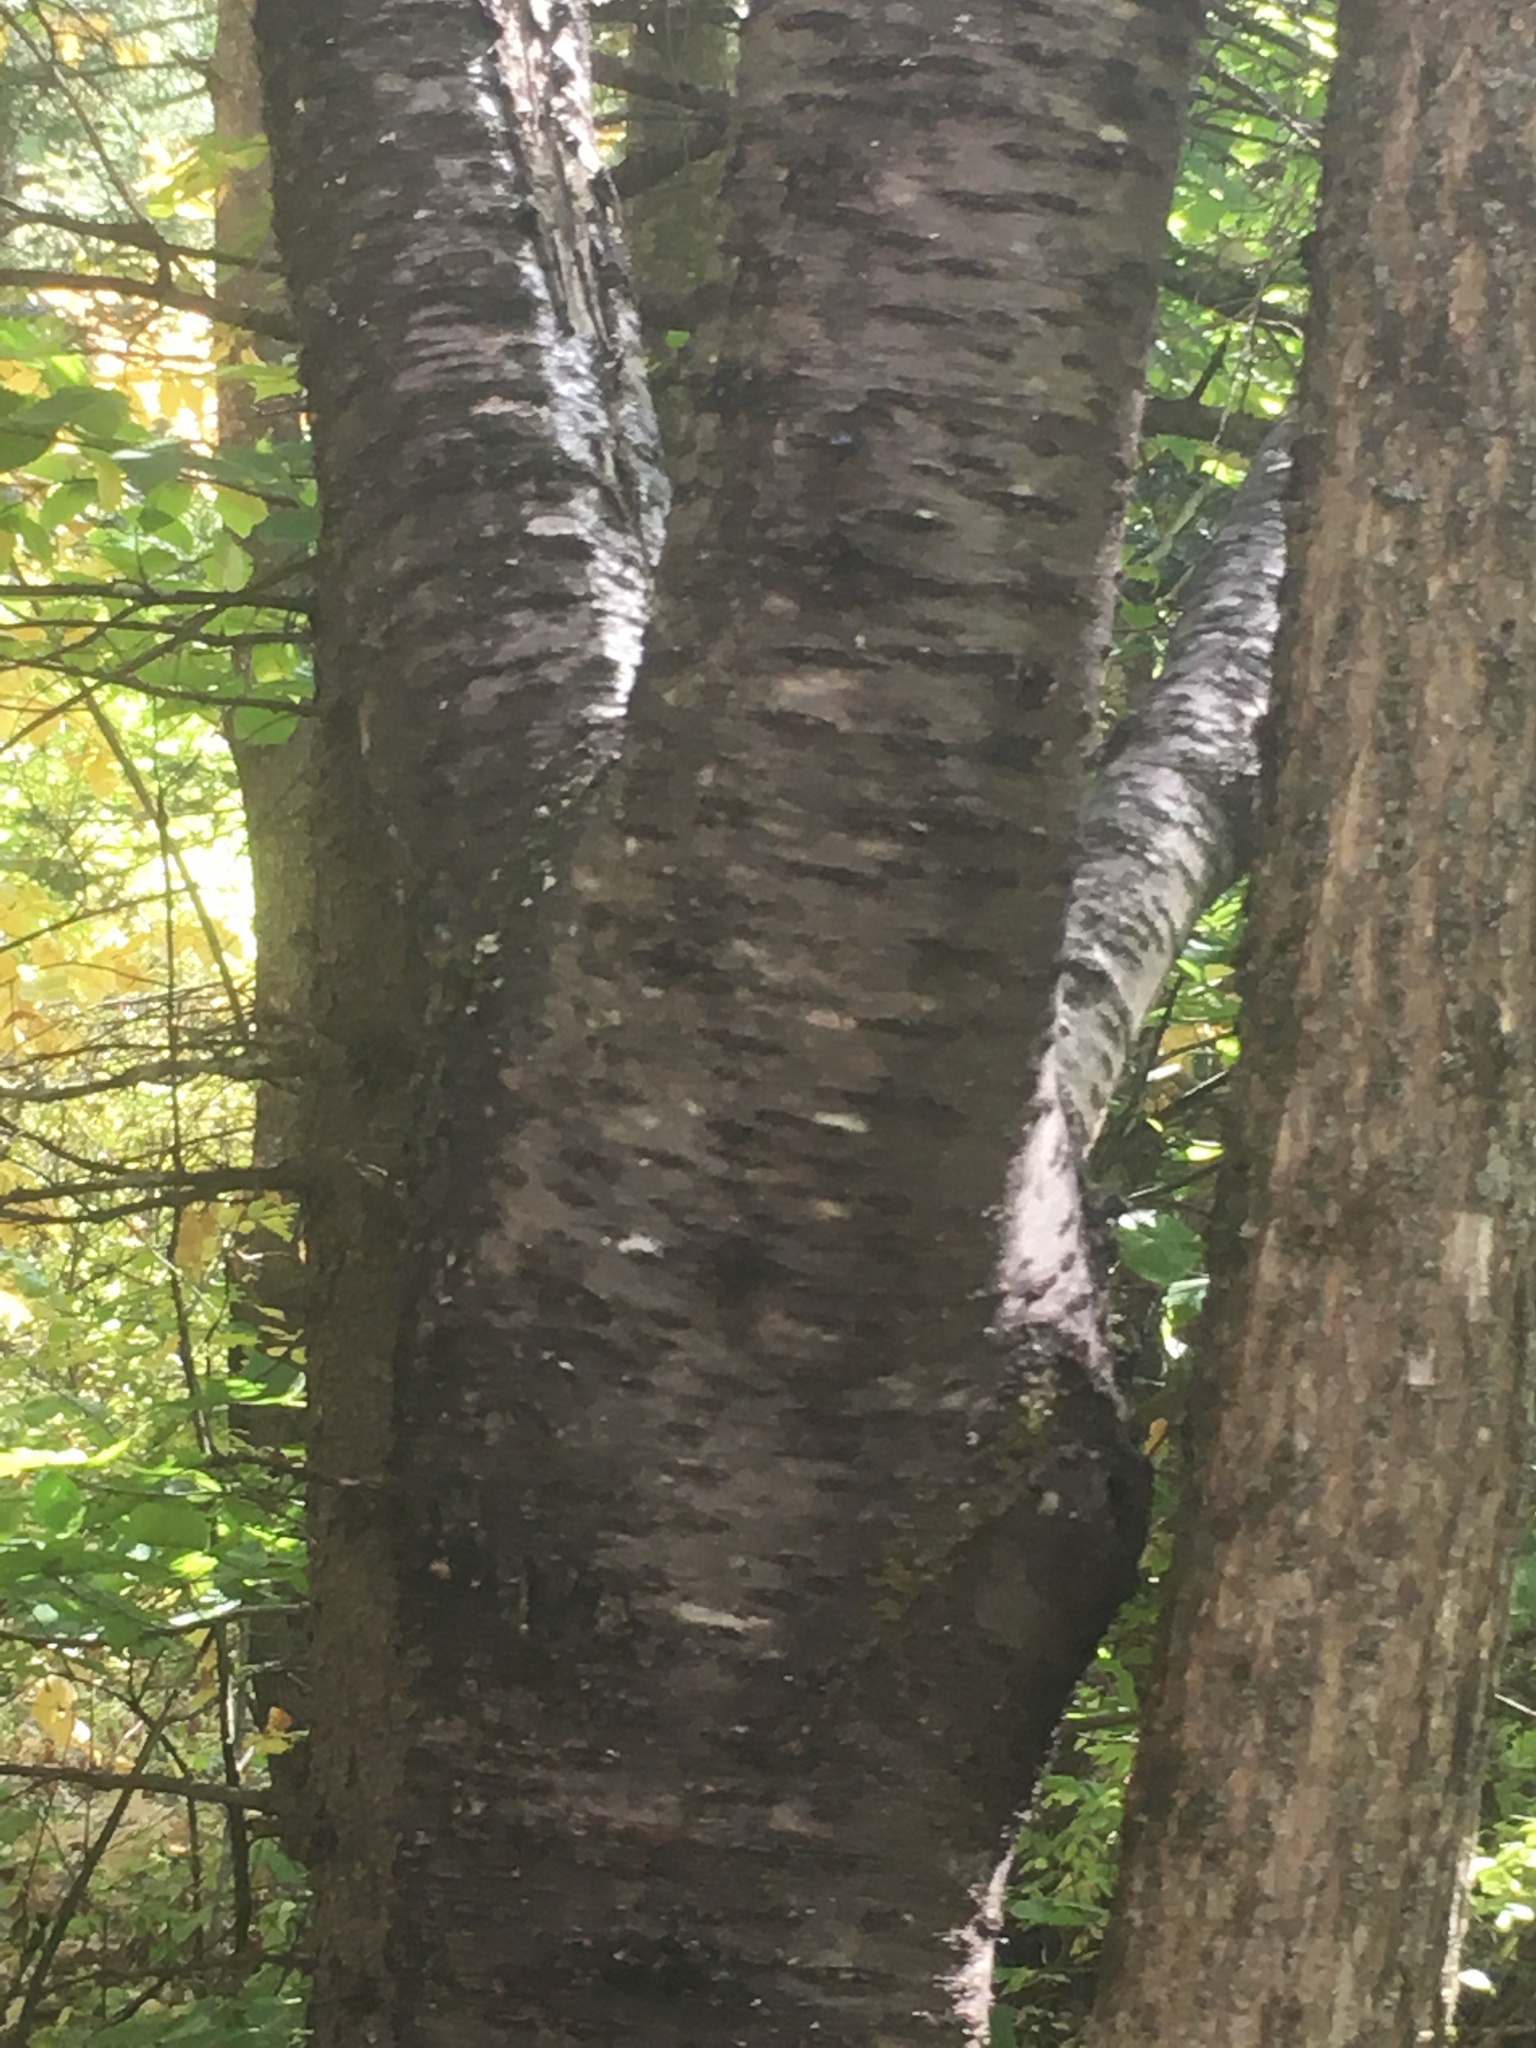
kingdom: Plantae
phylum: Tracheophyta
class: Magnoliopsida
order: Rosales
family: Rosaceae
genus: Prunus
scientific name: Prunus pensylvanica
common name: Pin cherry
